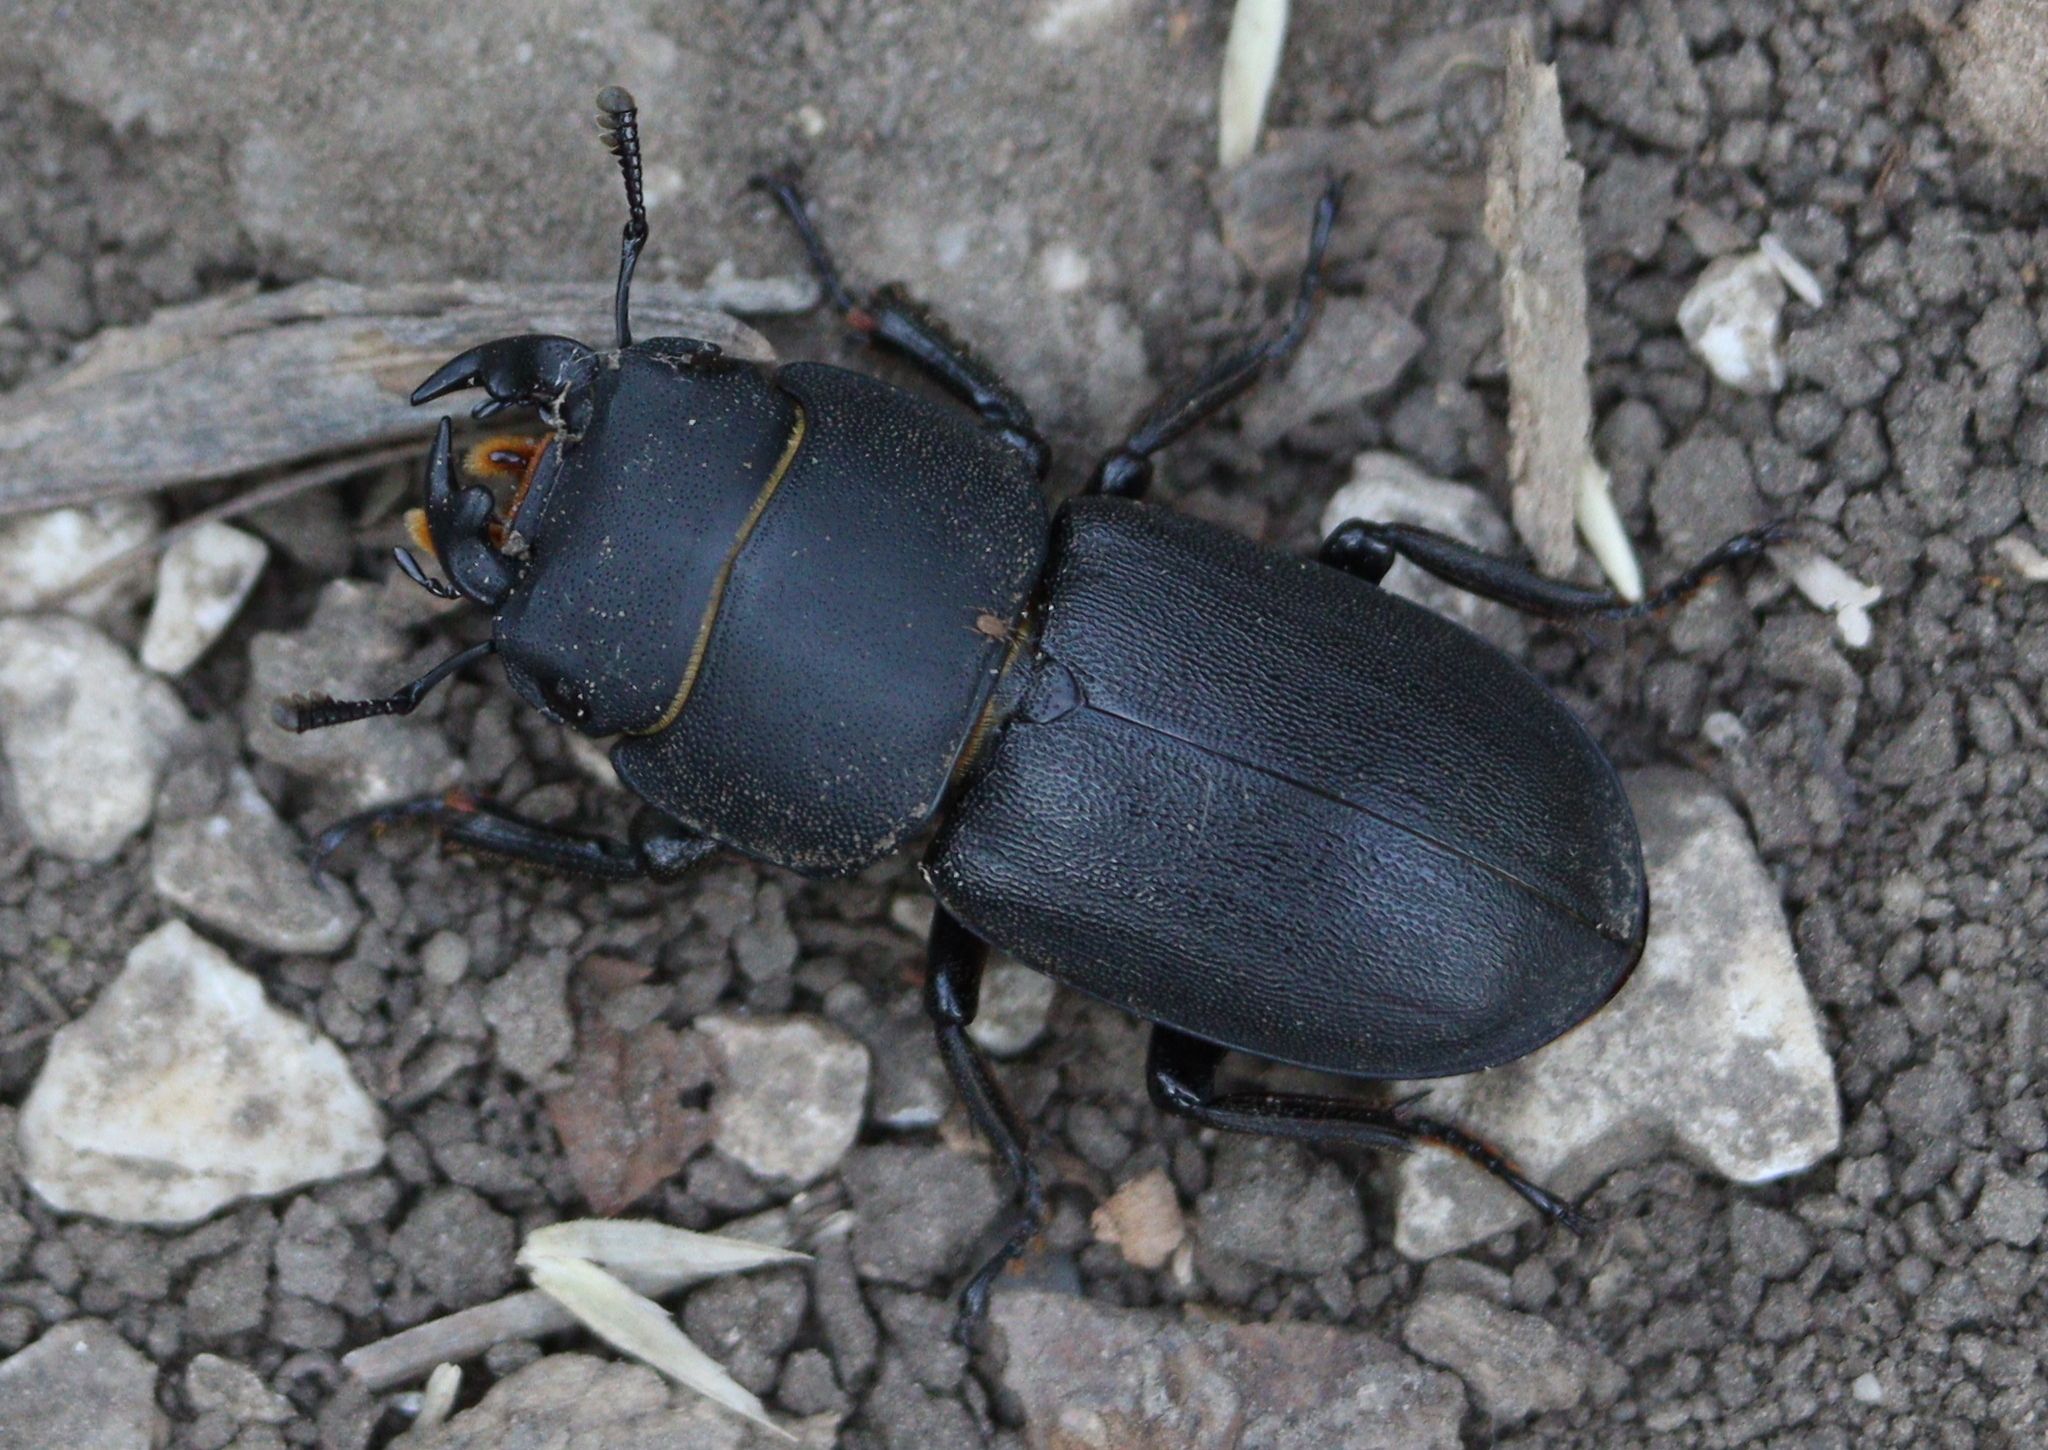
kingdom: Animalia
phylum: Arthropoda
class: Insecta
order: Coleoptera
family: Lucanidae
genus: Dorcus
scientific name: Dorcus parallelipipedus
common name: Lesser stag beetle
